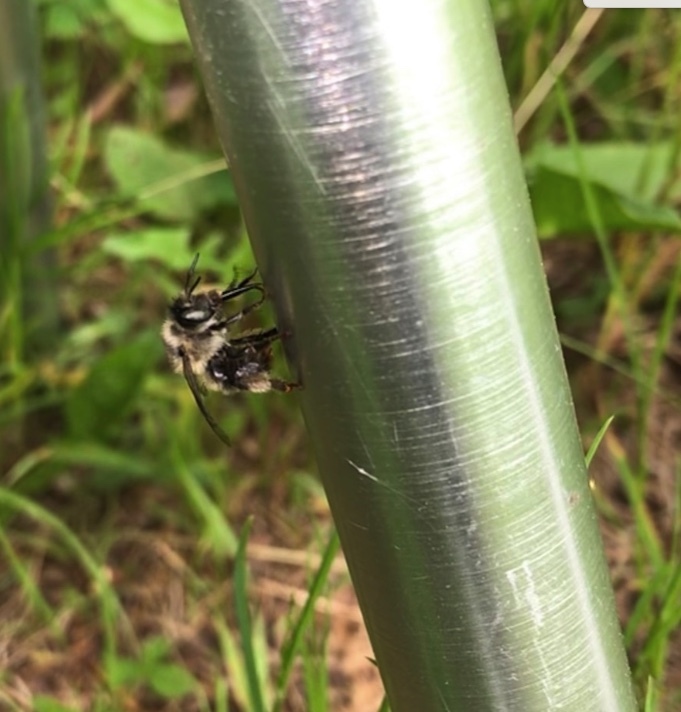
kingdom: Animalia
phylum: Arthropoda
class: Insecta
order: Hymenoptera
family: Apidae
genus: Anthophora
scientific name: Anthophora terminalis
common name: Orange-tipped wood-digger bee
